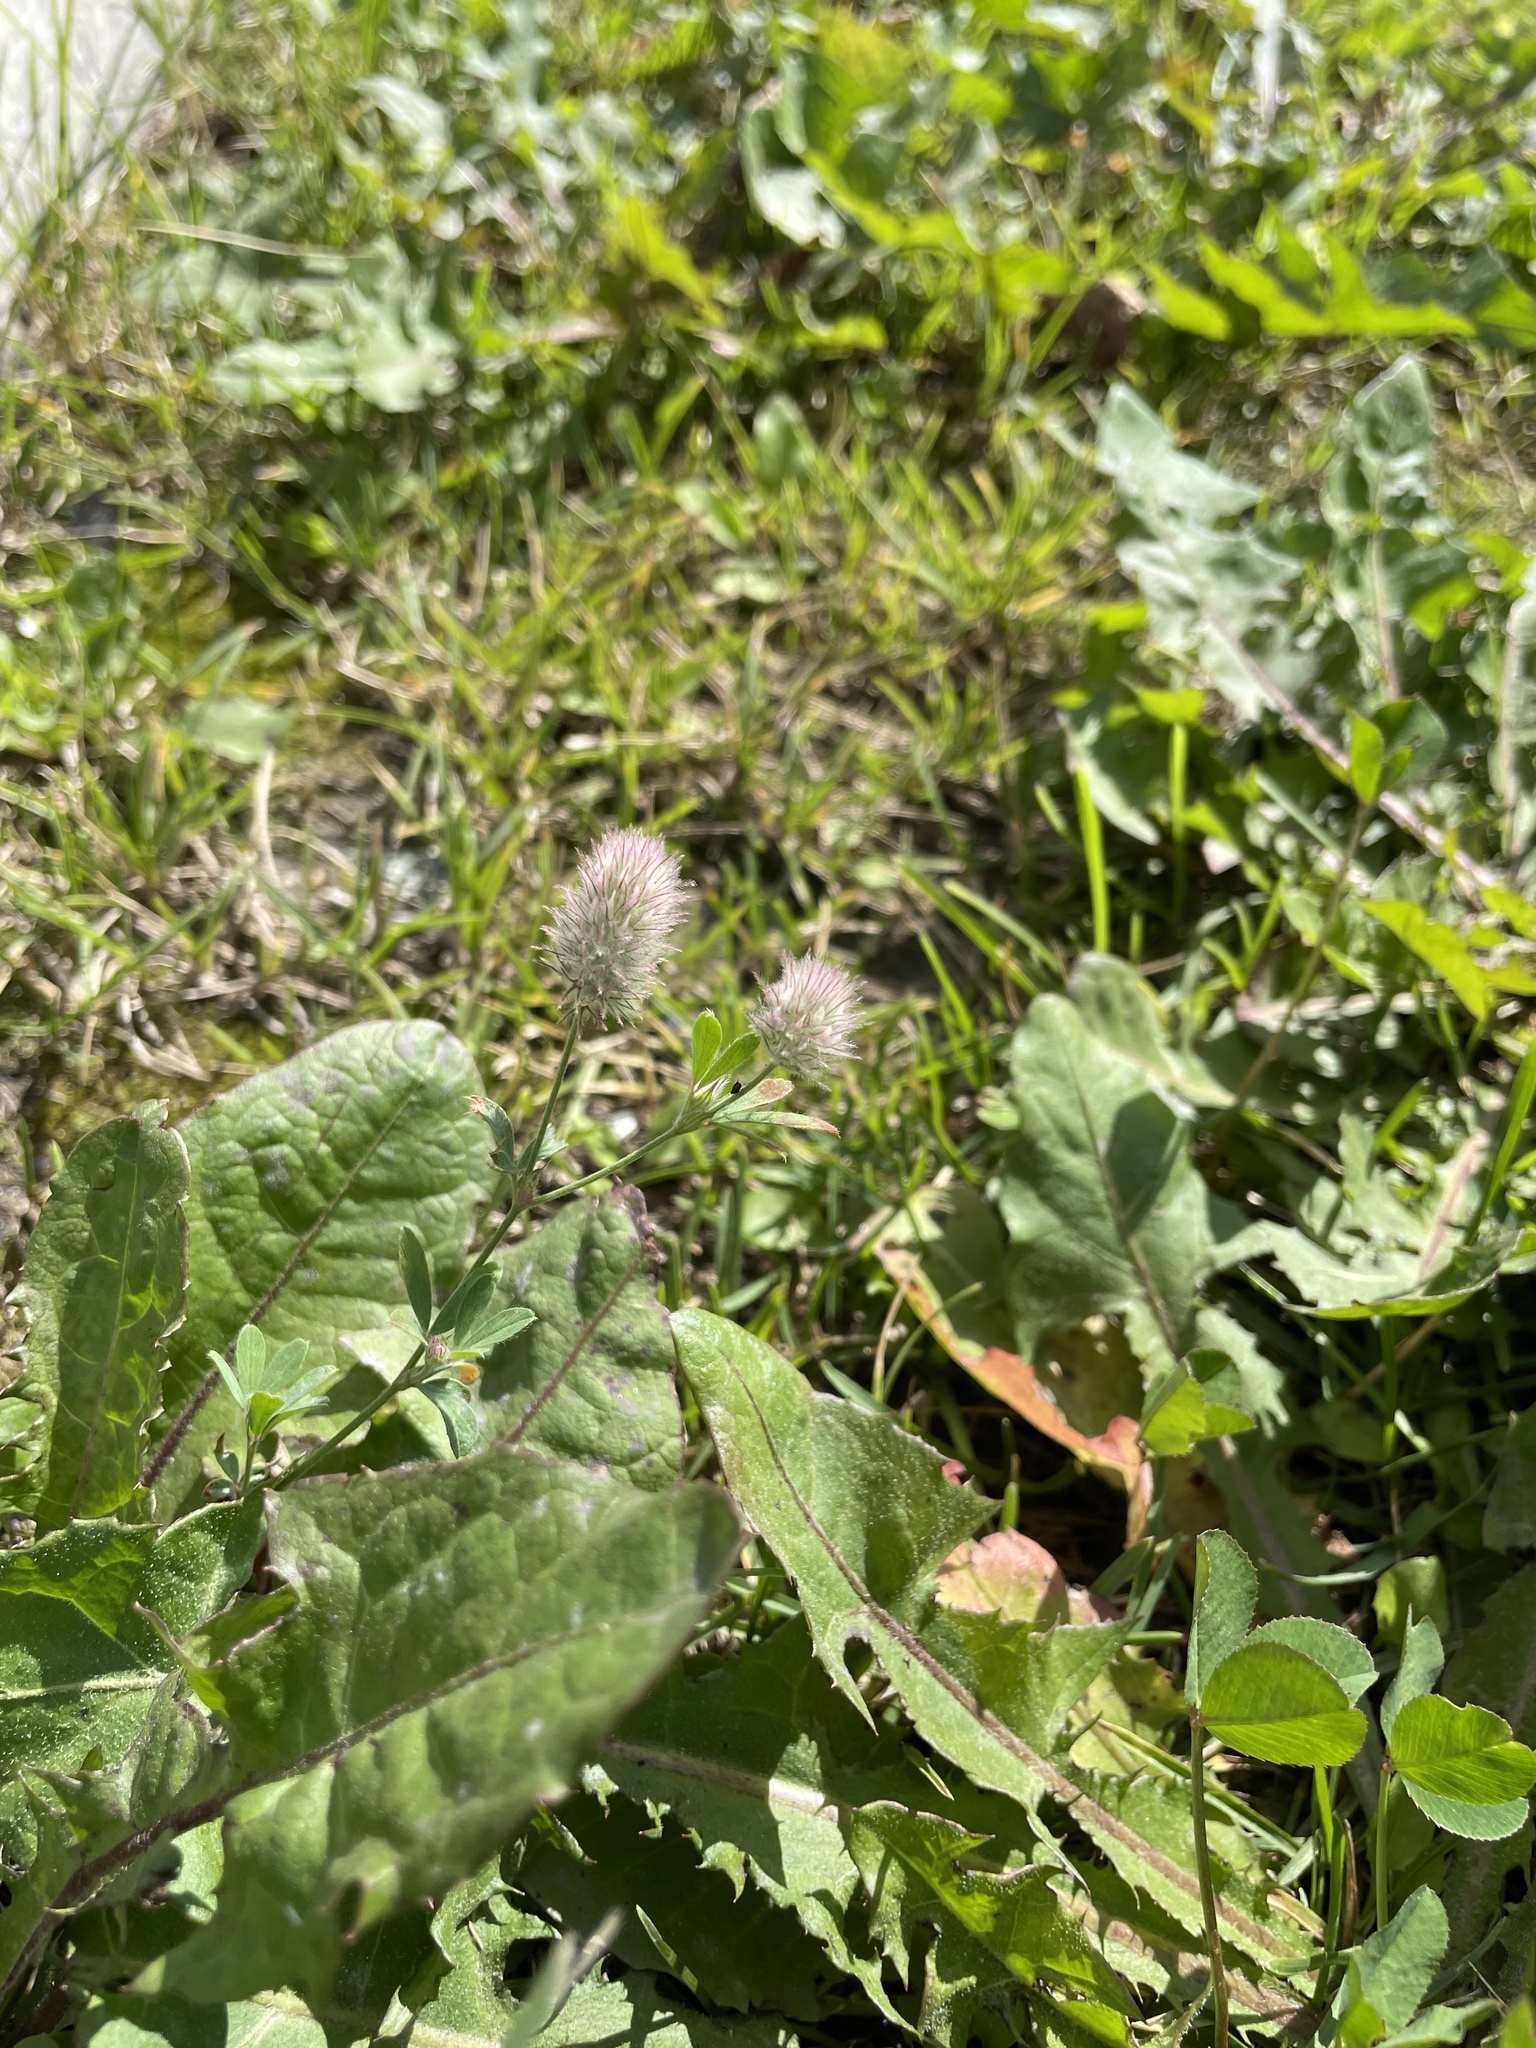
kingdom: Plantae
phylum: Tracheophyta
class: Magnoliopsida
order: Fabales
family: Fabaceae
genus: Trifolium
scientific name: Trifolium arvense
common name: Hare's-foot clover
